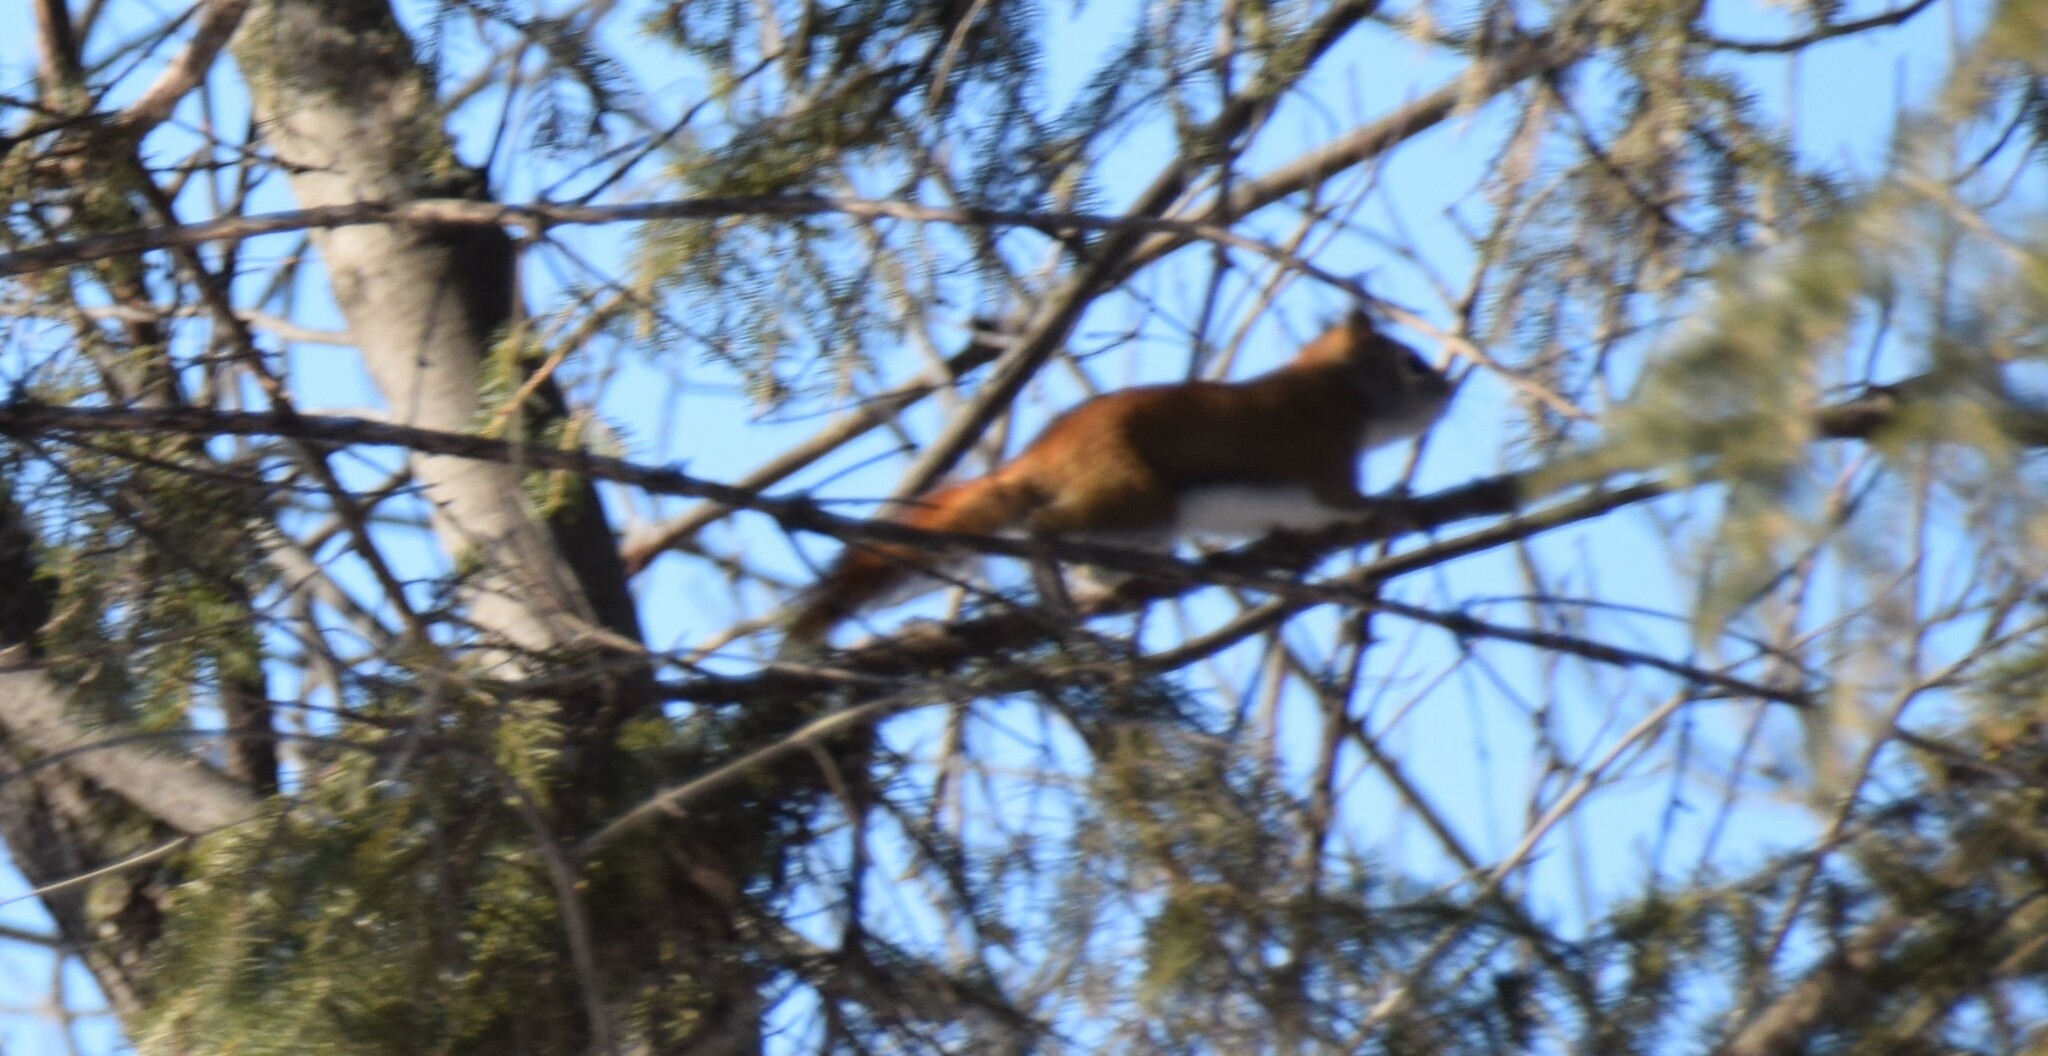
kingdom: Animalia
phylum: Chordata
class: Mammalia
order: Rodentia
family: Sciuridae
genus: Tamiasciurus
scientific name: Tamiasciurus hudsonicus
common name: Red squirrel
